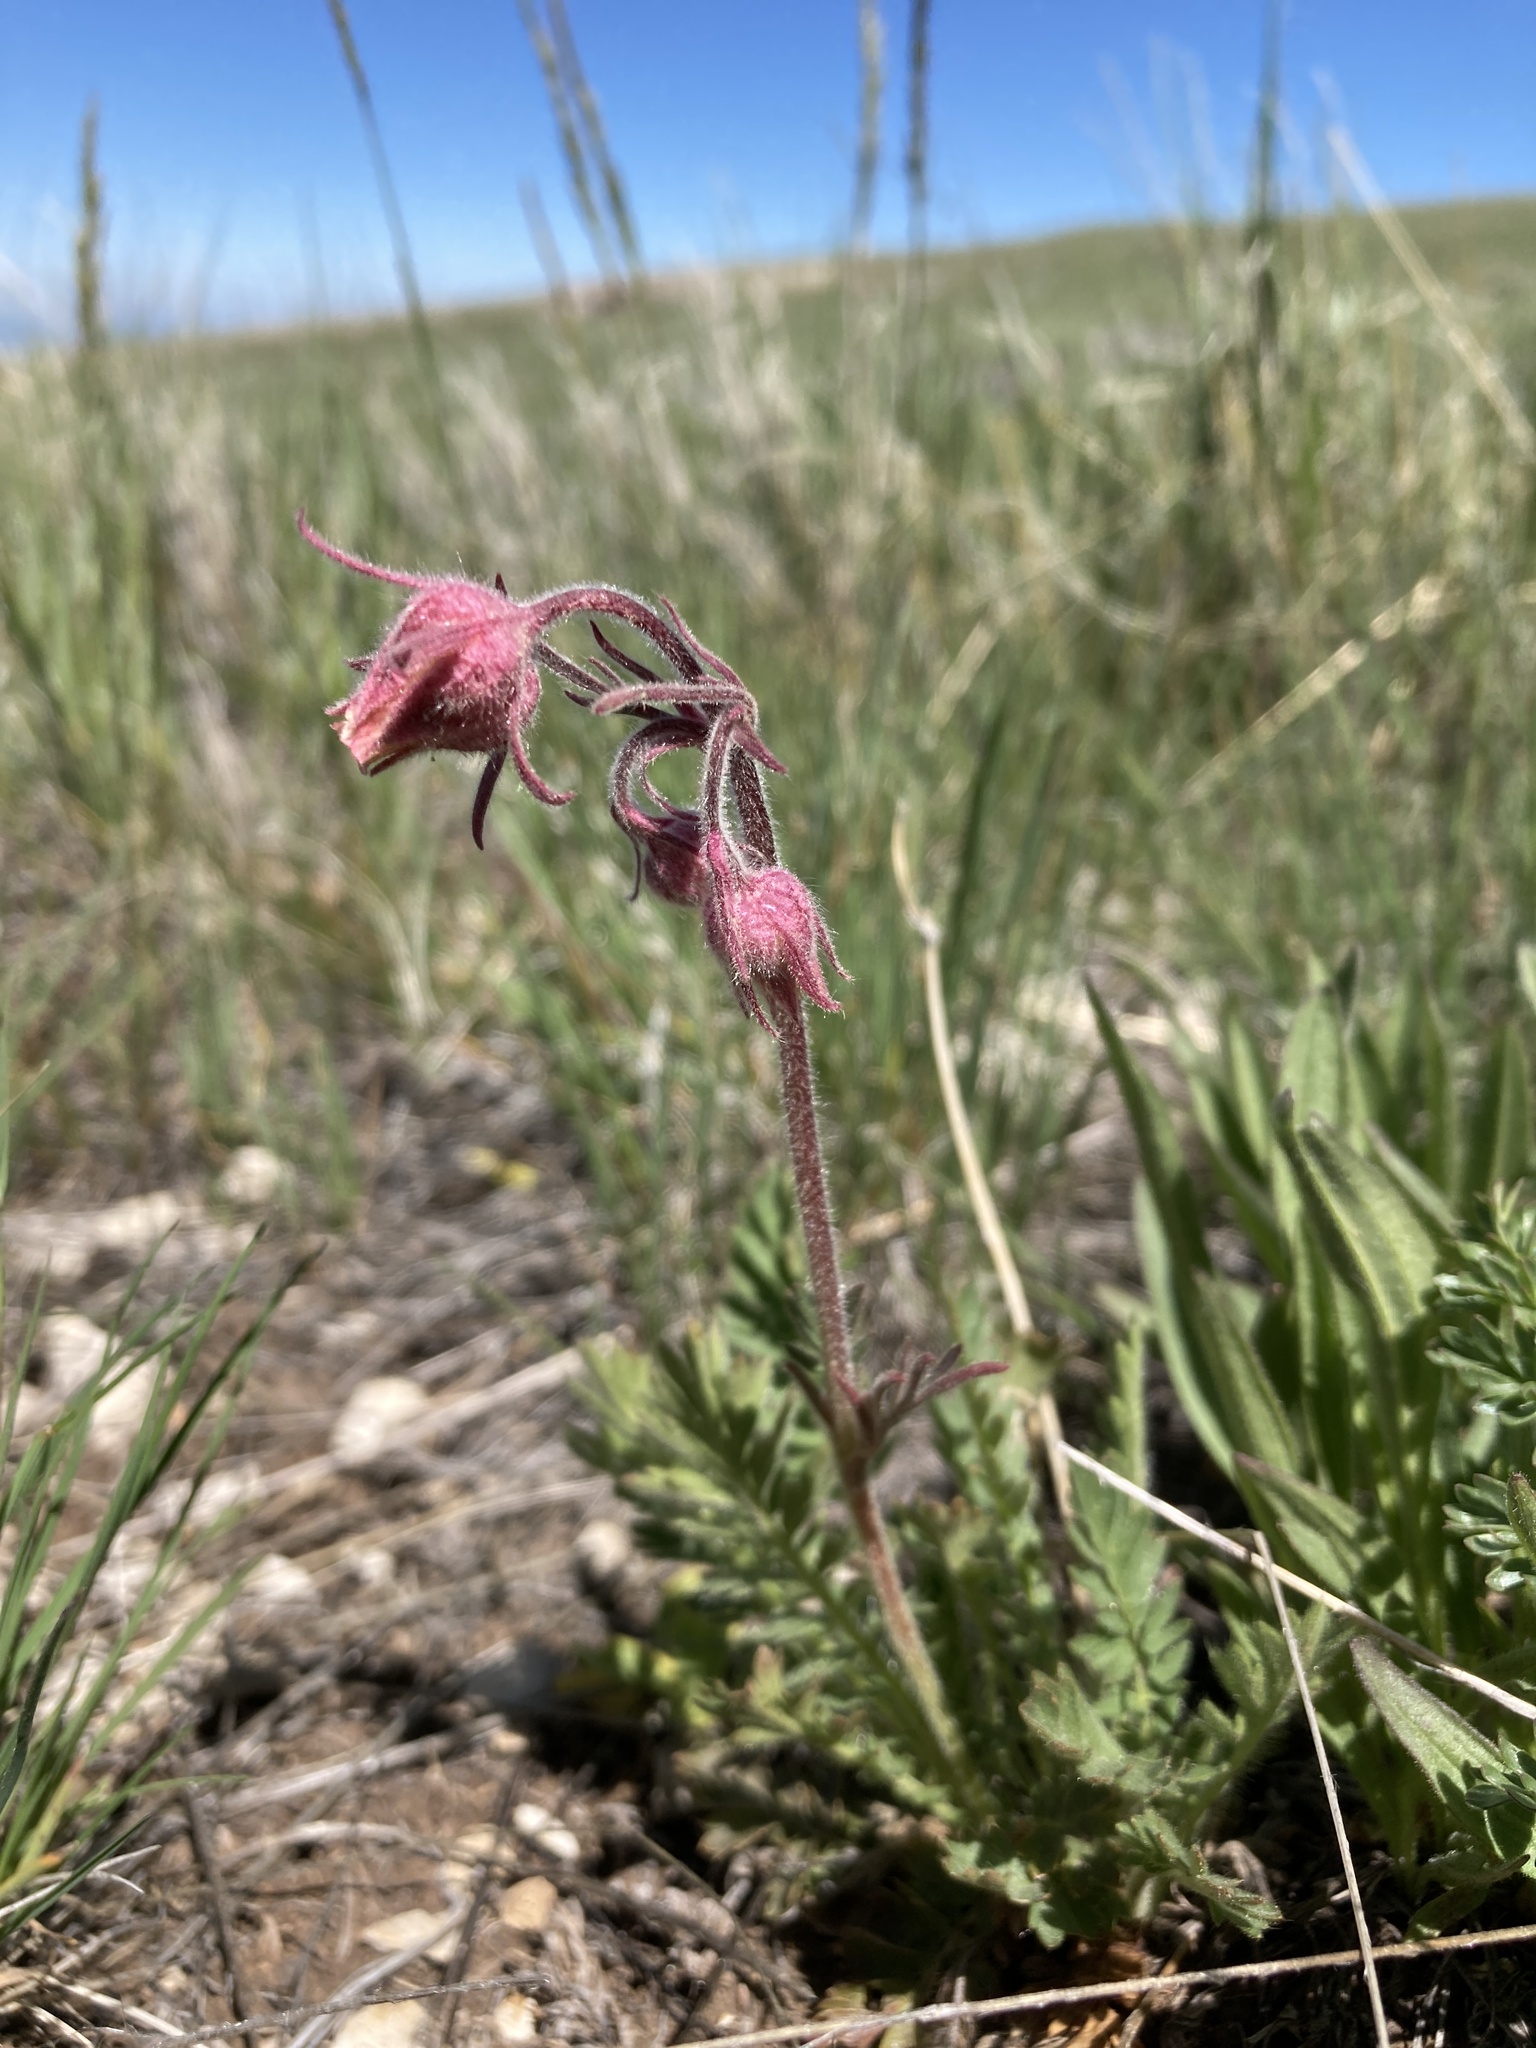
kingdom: Plantae
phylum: Tracheophyta
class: Magnoliopsida
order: Rosales
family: Rosaceae
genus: Geum
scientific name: Geum triflorum
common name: Old man's whiskers
